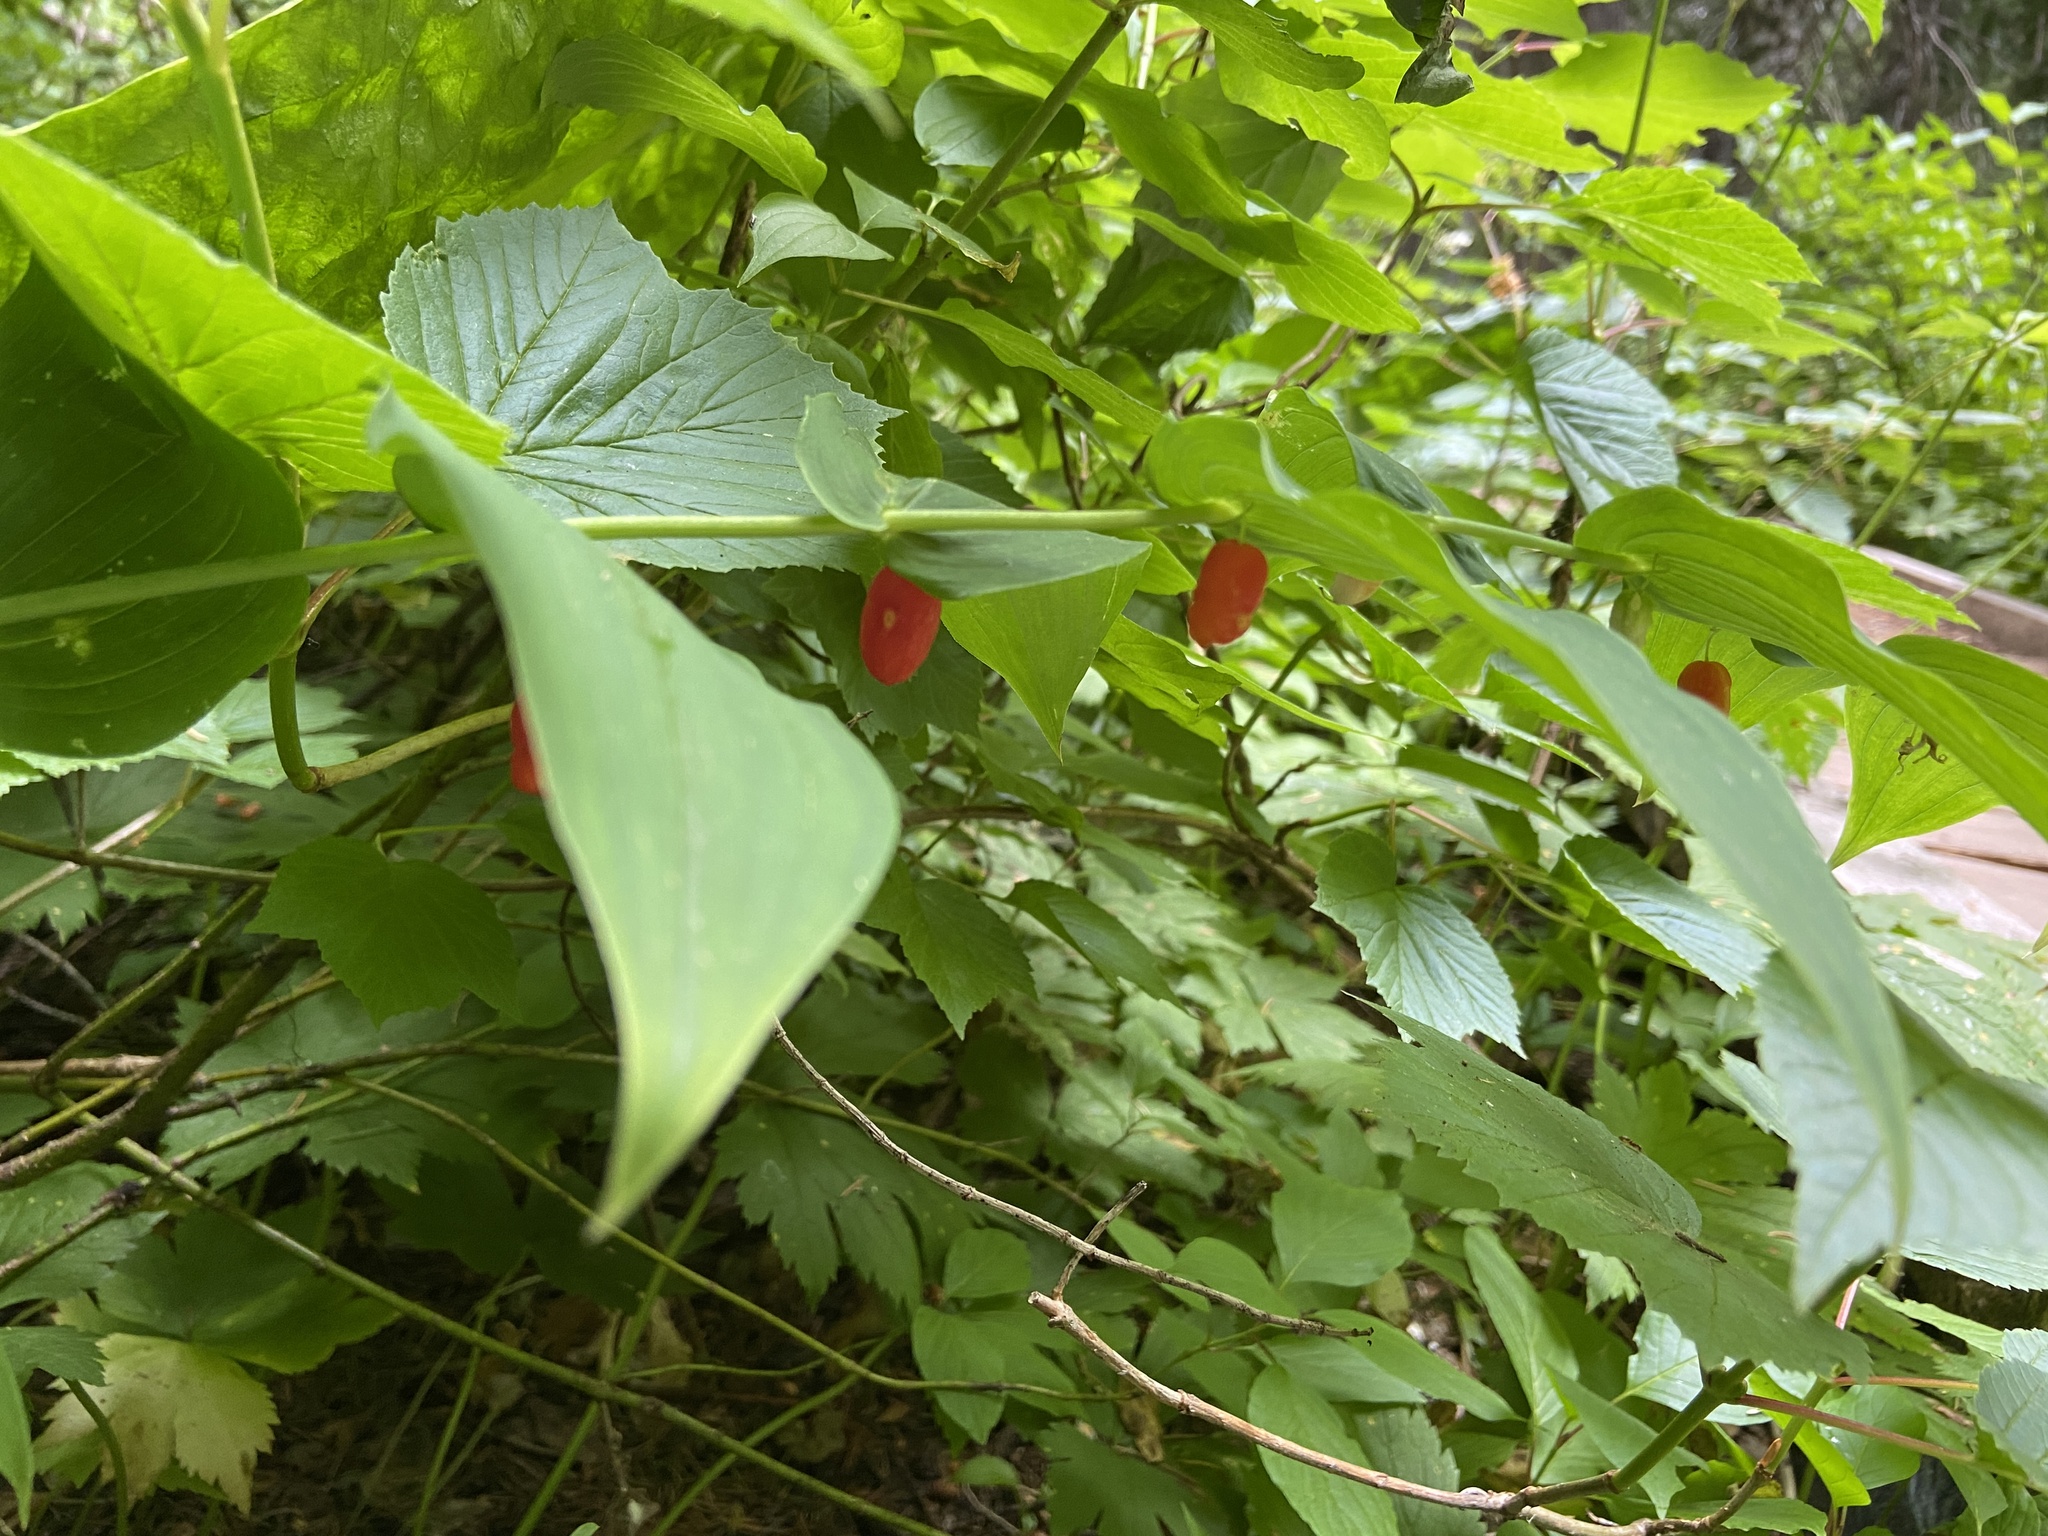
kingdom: Plantae
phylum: Tracheophyta
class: Liliopsida
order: Liliales
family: Liliaceae
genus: Streptopus
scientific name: Streptopus amplexifolius
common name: Clasp twisted stalk
